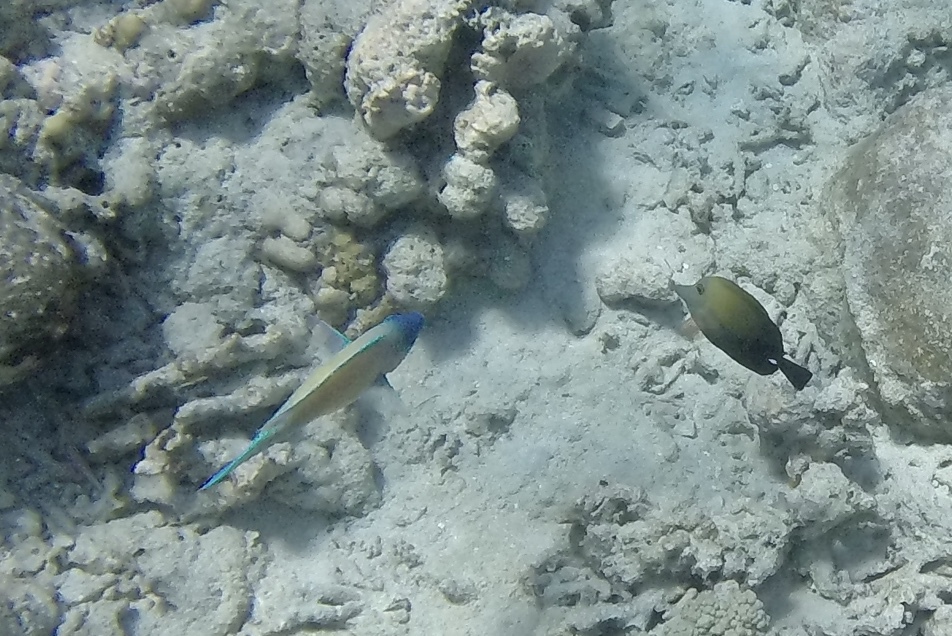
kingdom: Animalia
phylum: Chordata
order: Perciformes
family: Acanthuridae
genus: Zebrasoma
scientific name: Zebrasoma scopas
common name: Twotone tang
